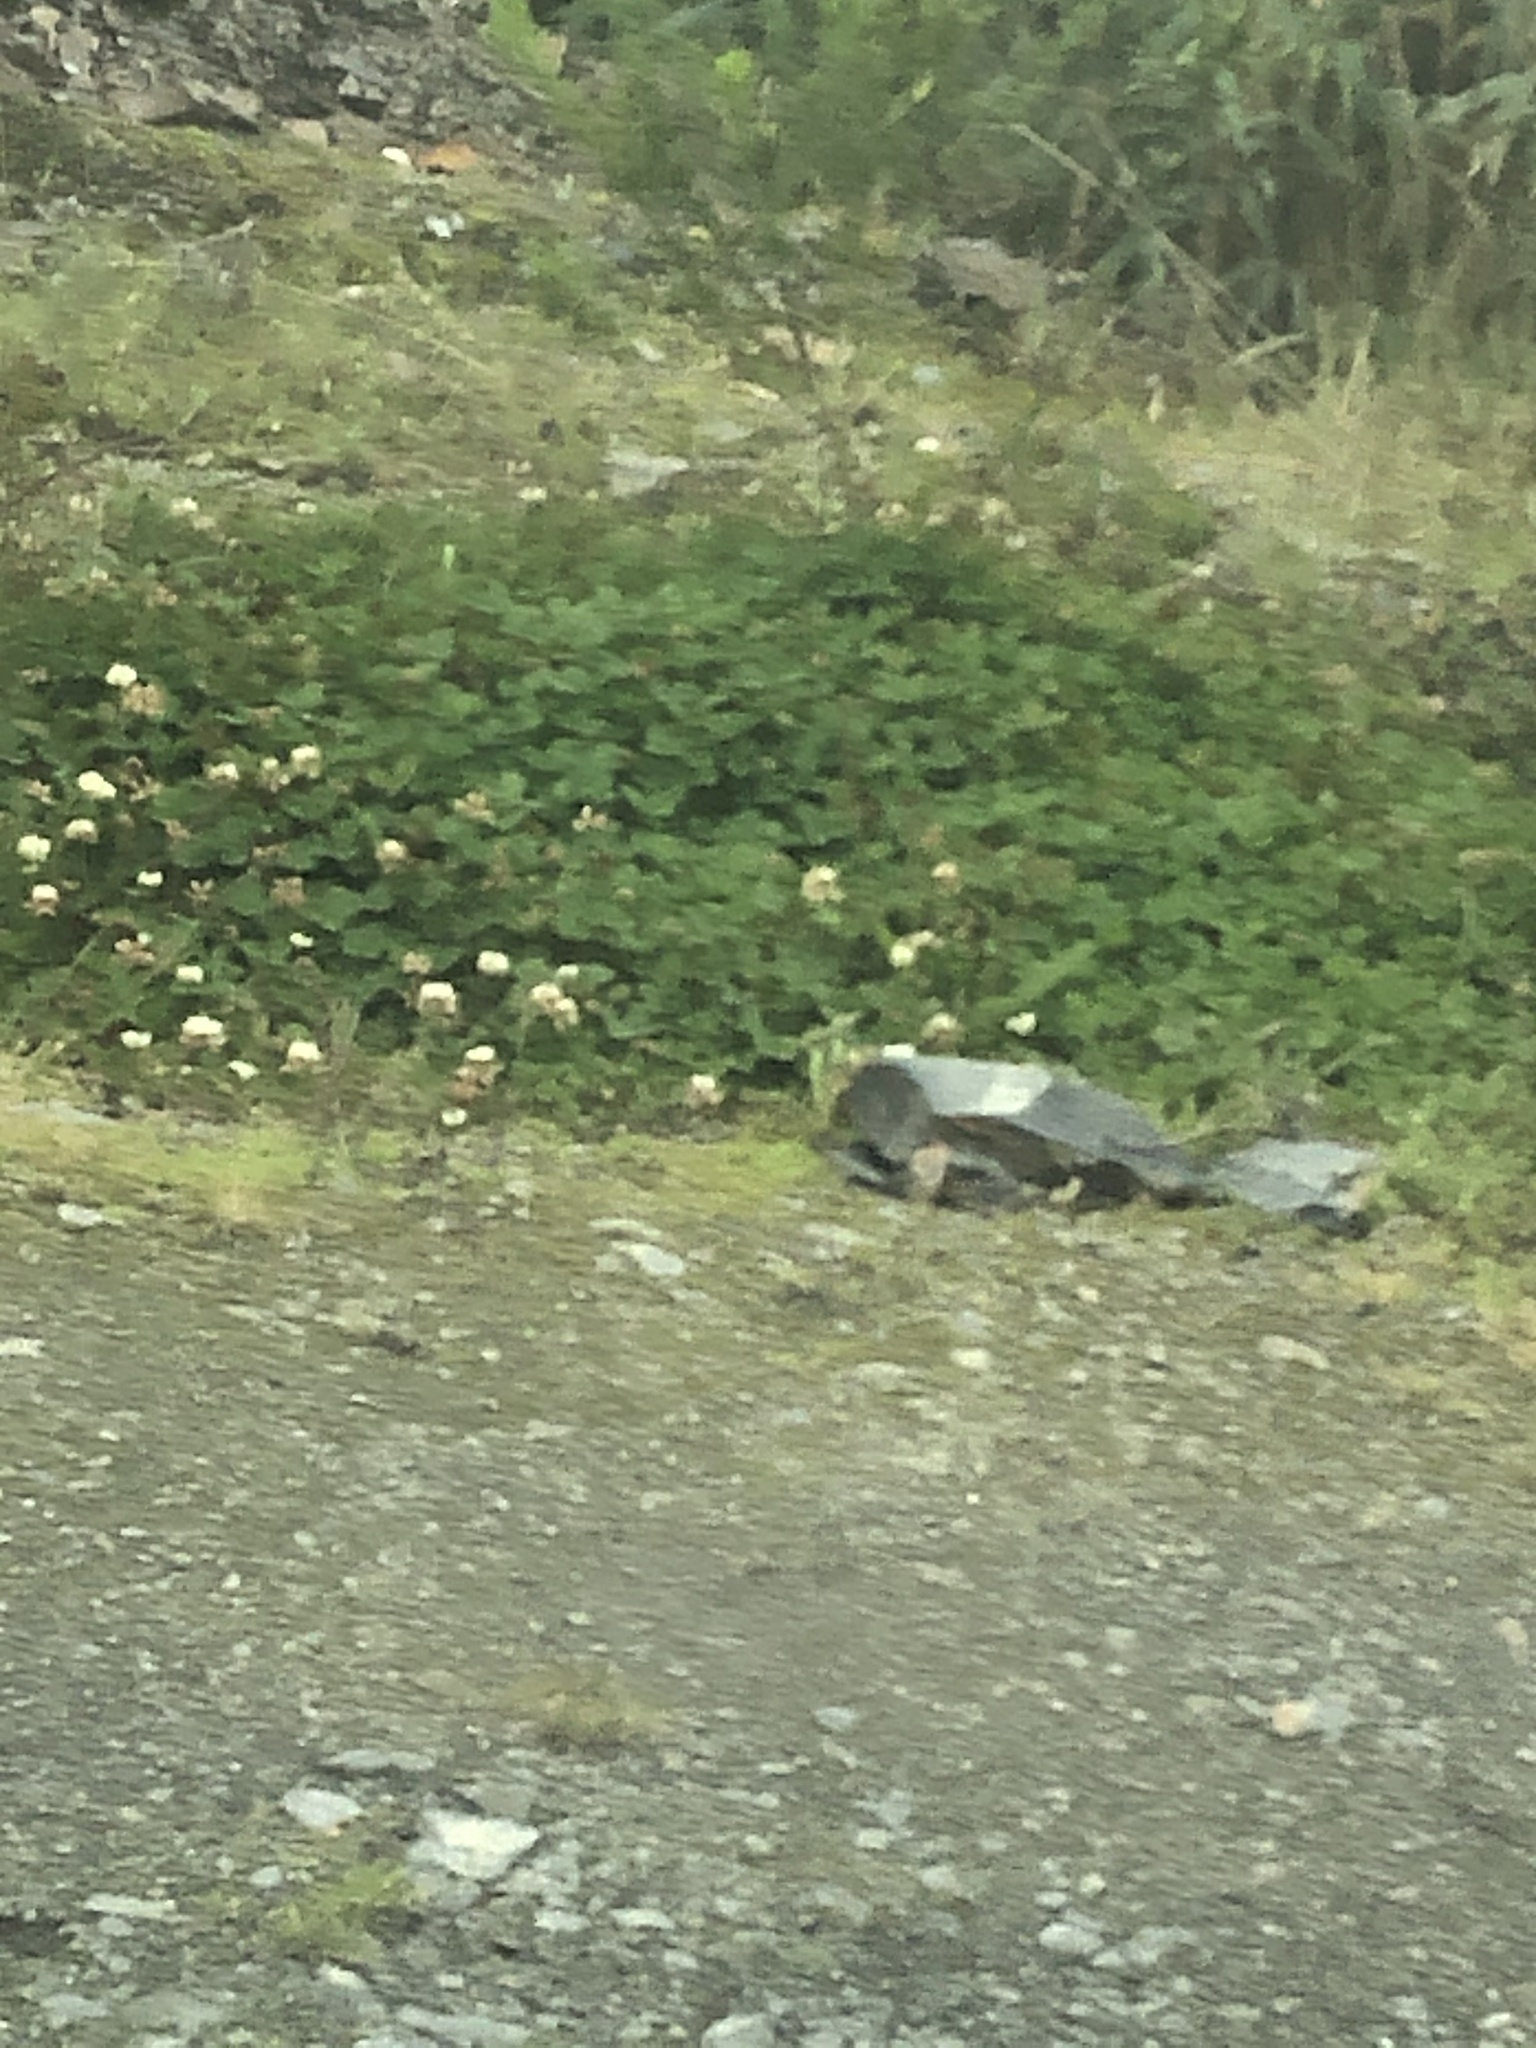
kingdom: Plantae
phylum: Tracheophyta
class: Magnoliopsida
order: Fabales
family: Fabaceae
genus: Trifolium
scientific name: Trifolium repens
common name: White clover
